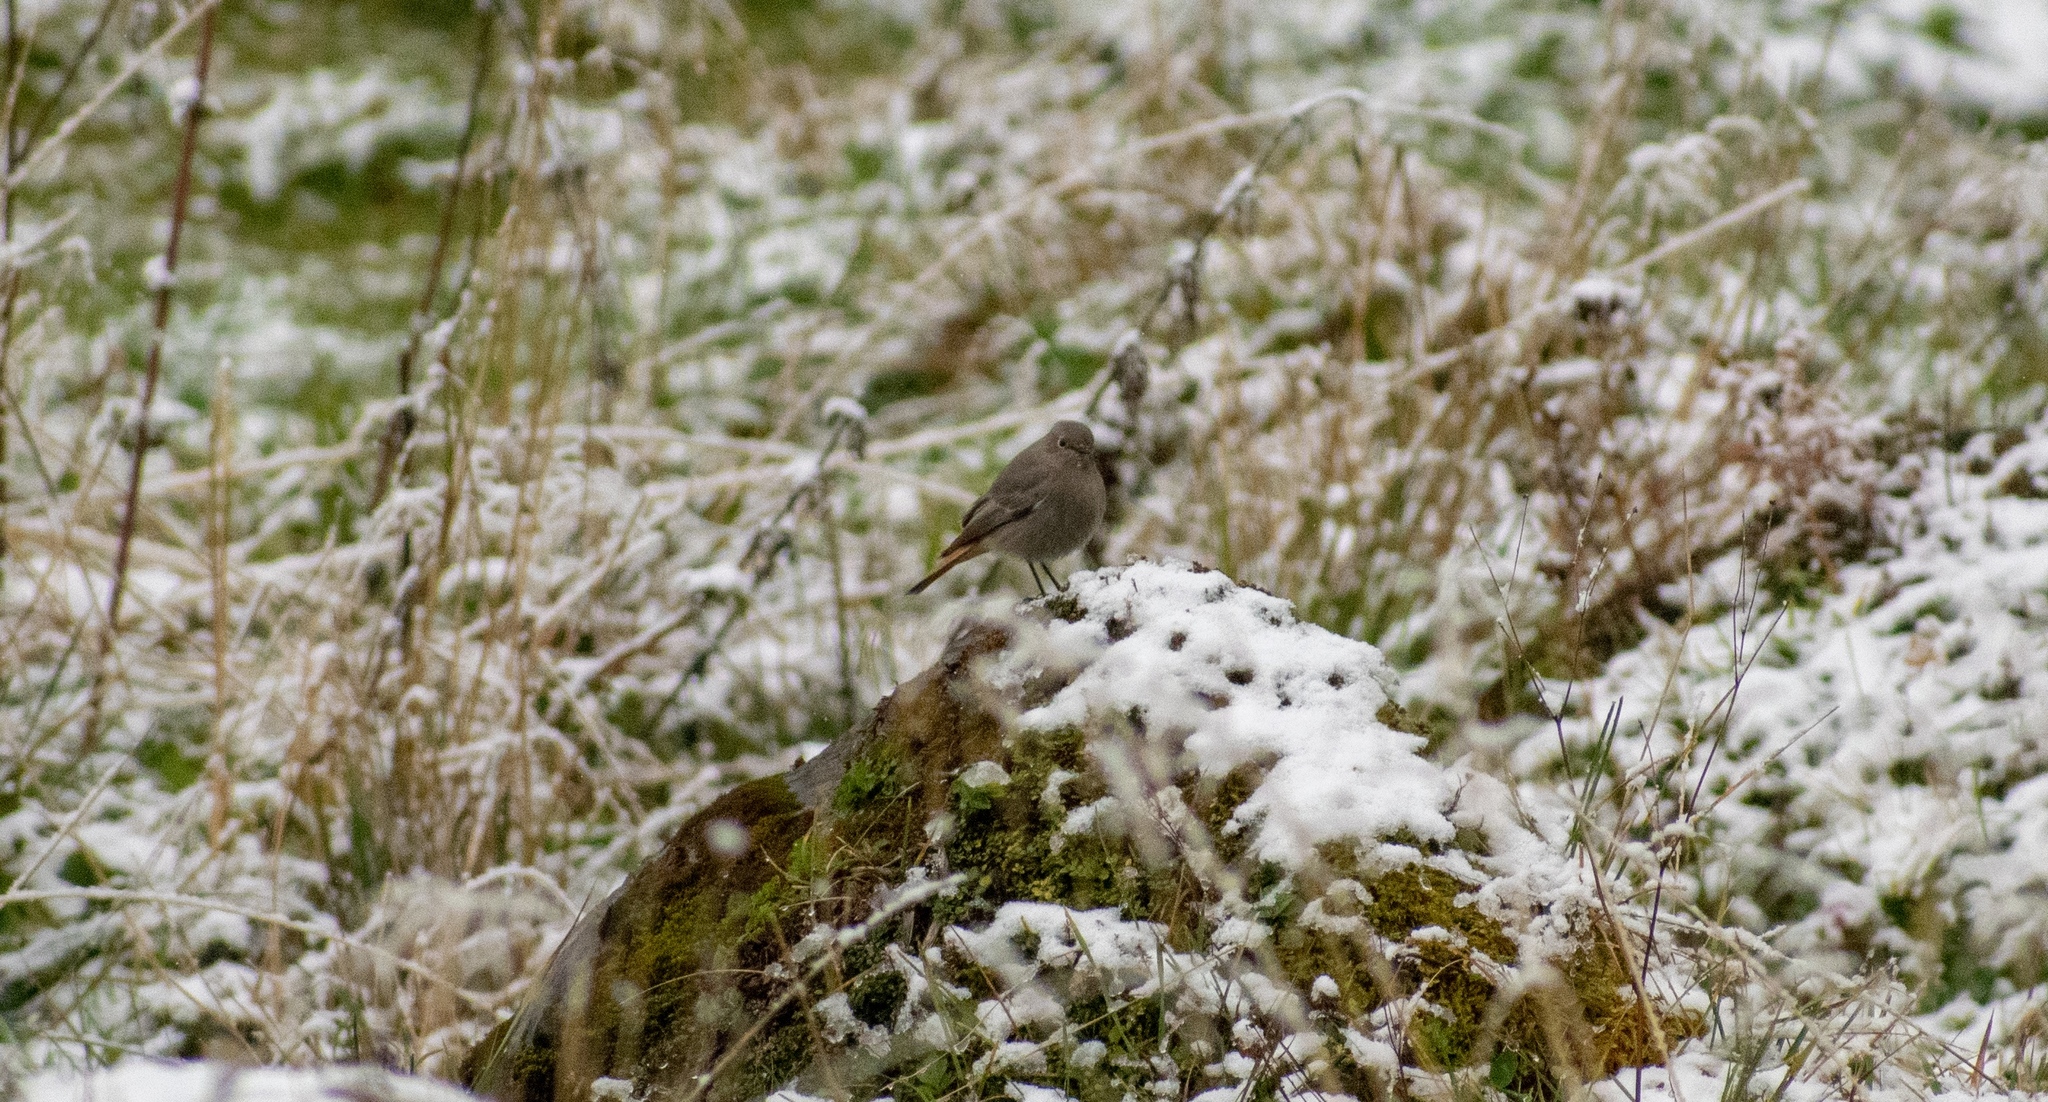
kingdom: Animalia
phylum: Chordata
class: Aves
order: Passeriformes
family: Muscicapidae
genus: Phoenicurus
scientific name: Phoenicurus ochruros
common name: Black redstart
